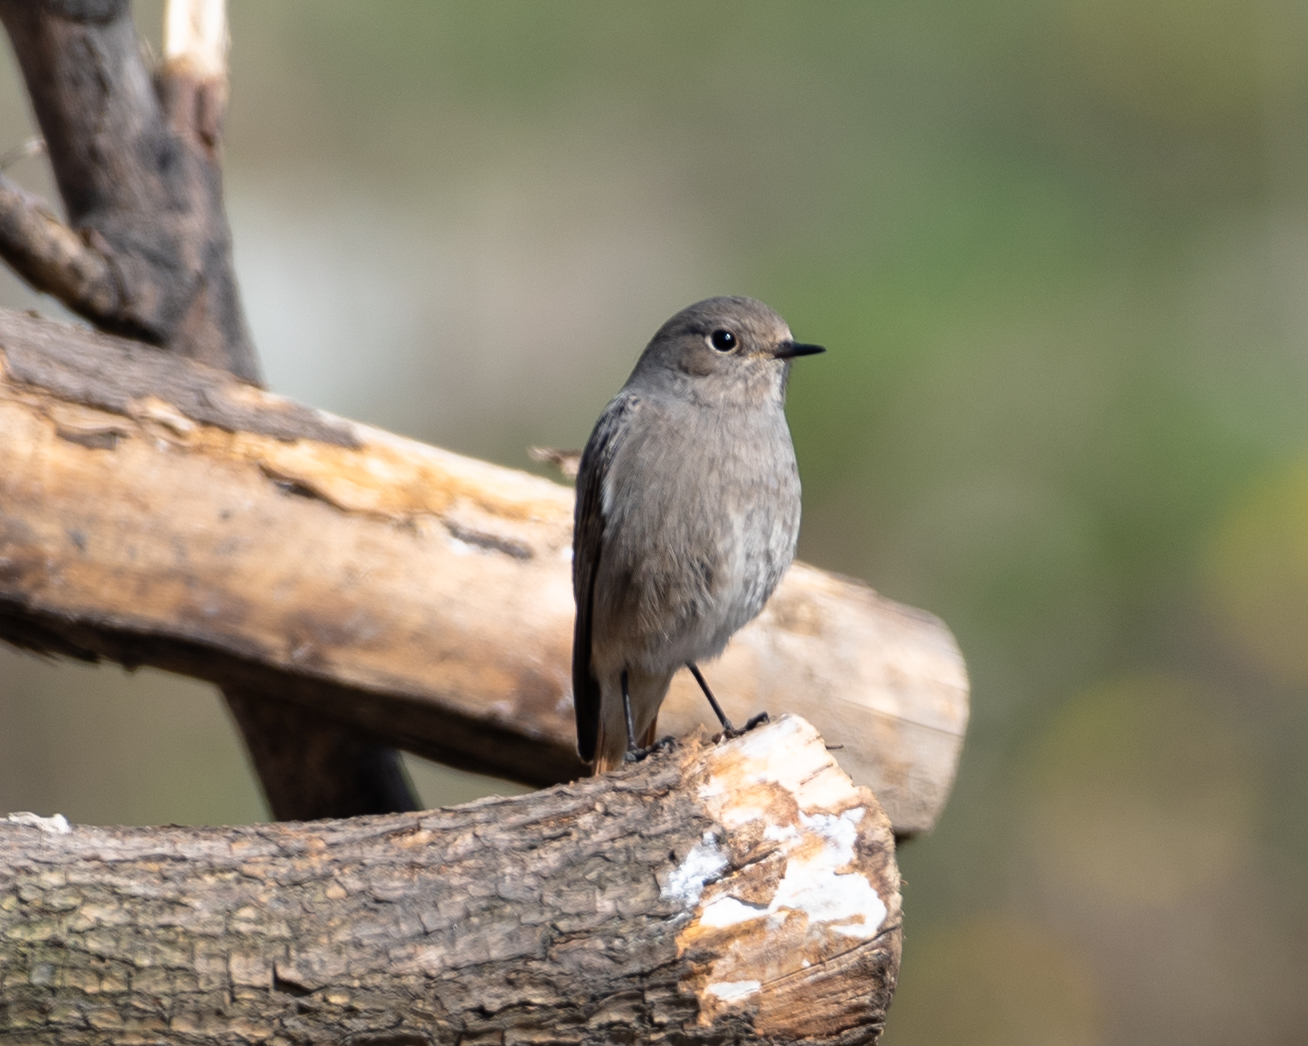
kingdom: Animalia
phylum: Chordata
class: Aves
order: Passeriformes
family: Muscicapidae
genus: Phoenicurus
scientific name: Phoenicurus ochruros
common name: Black redstart
